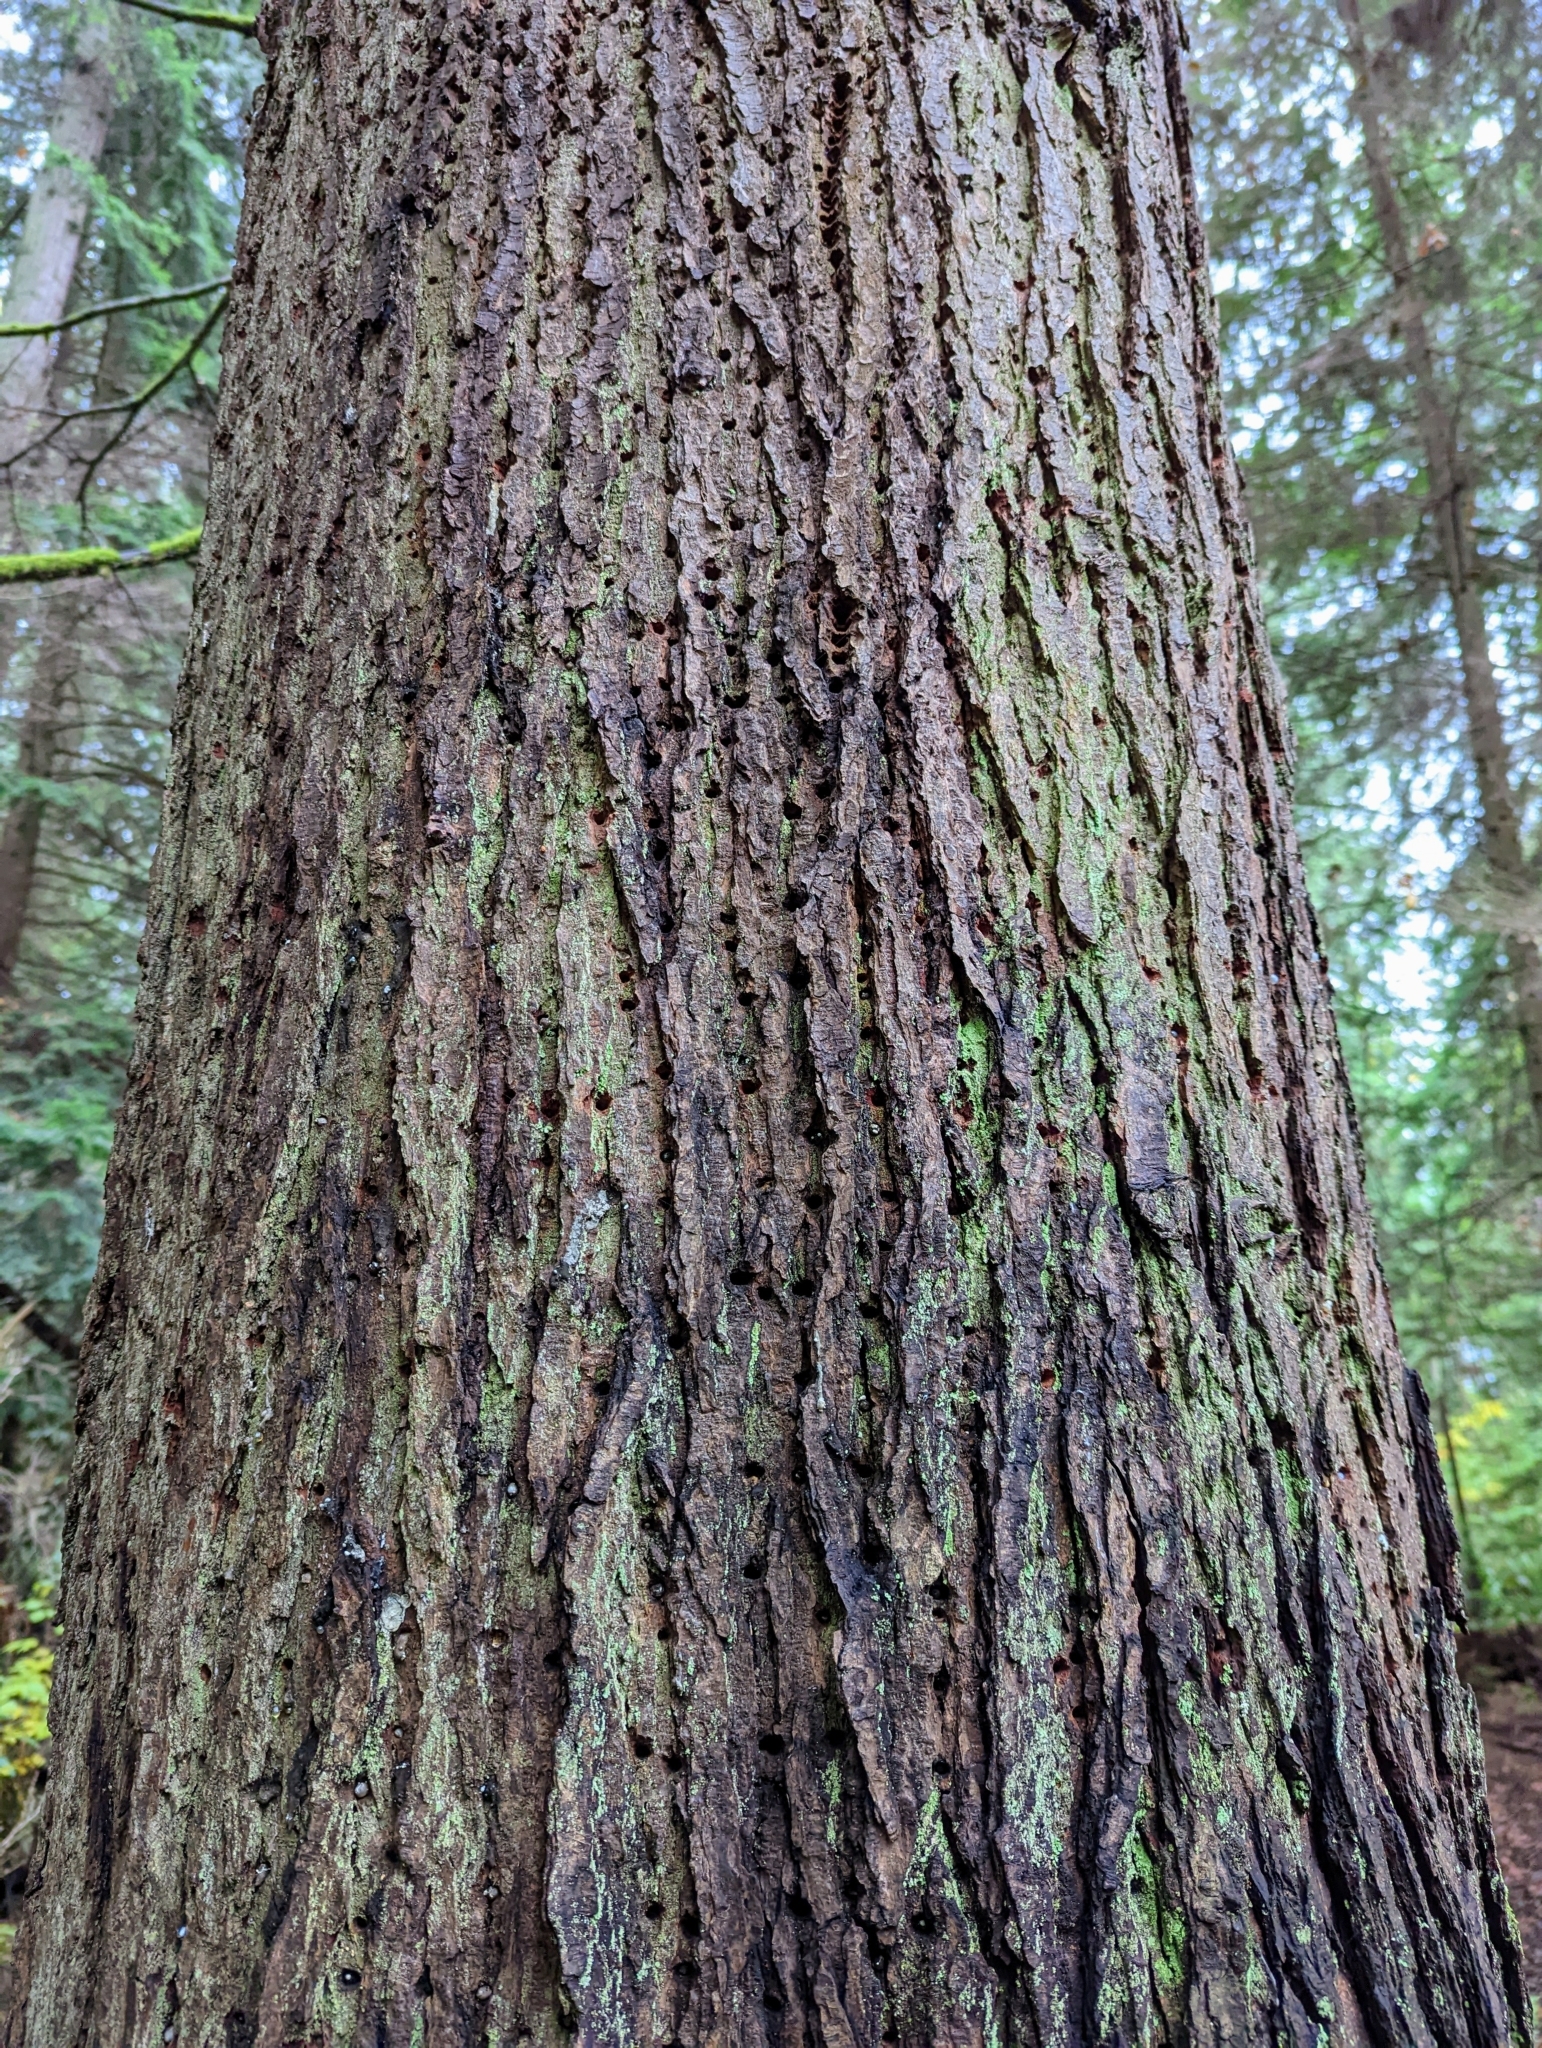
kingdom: Plantae
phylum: Tracheophyta
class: Pinopsida
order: Pinales
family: Pinaceae
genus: Tsuga
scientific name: Tsuga heterophylla
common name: Western hemlock
